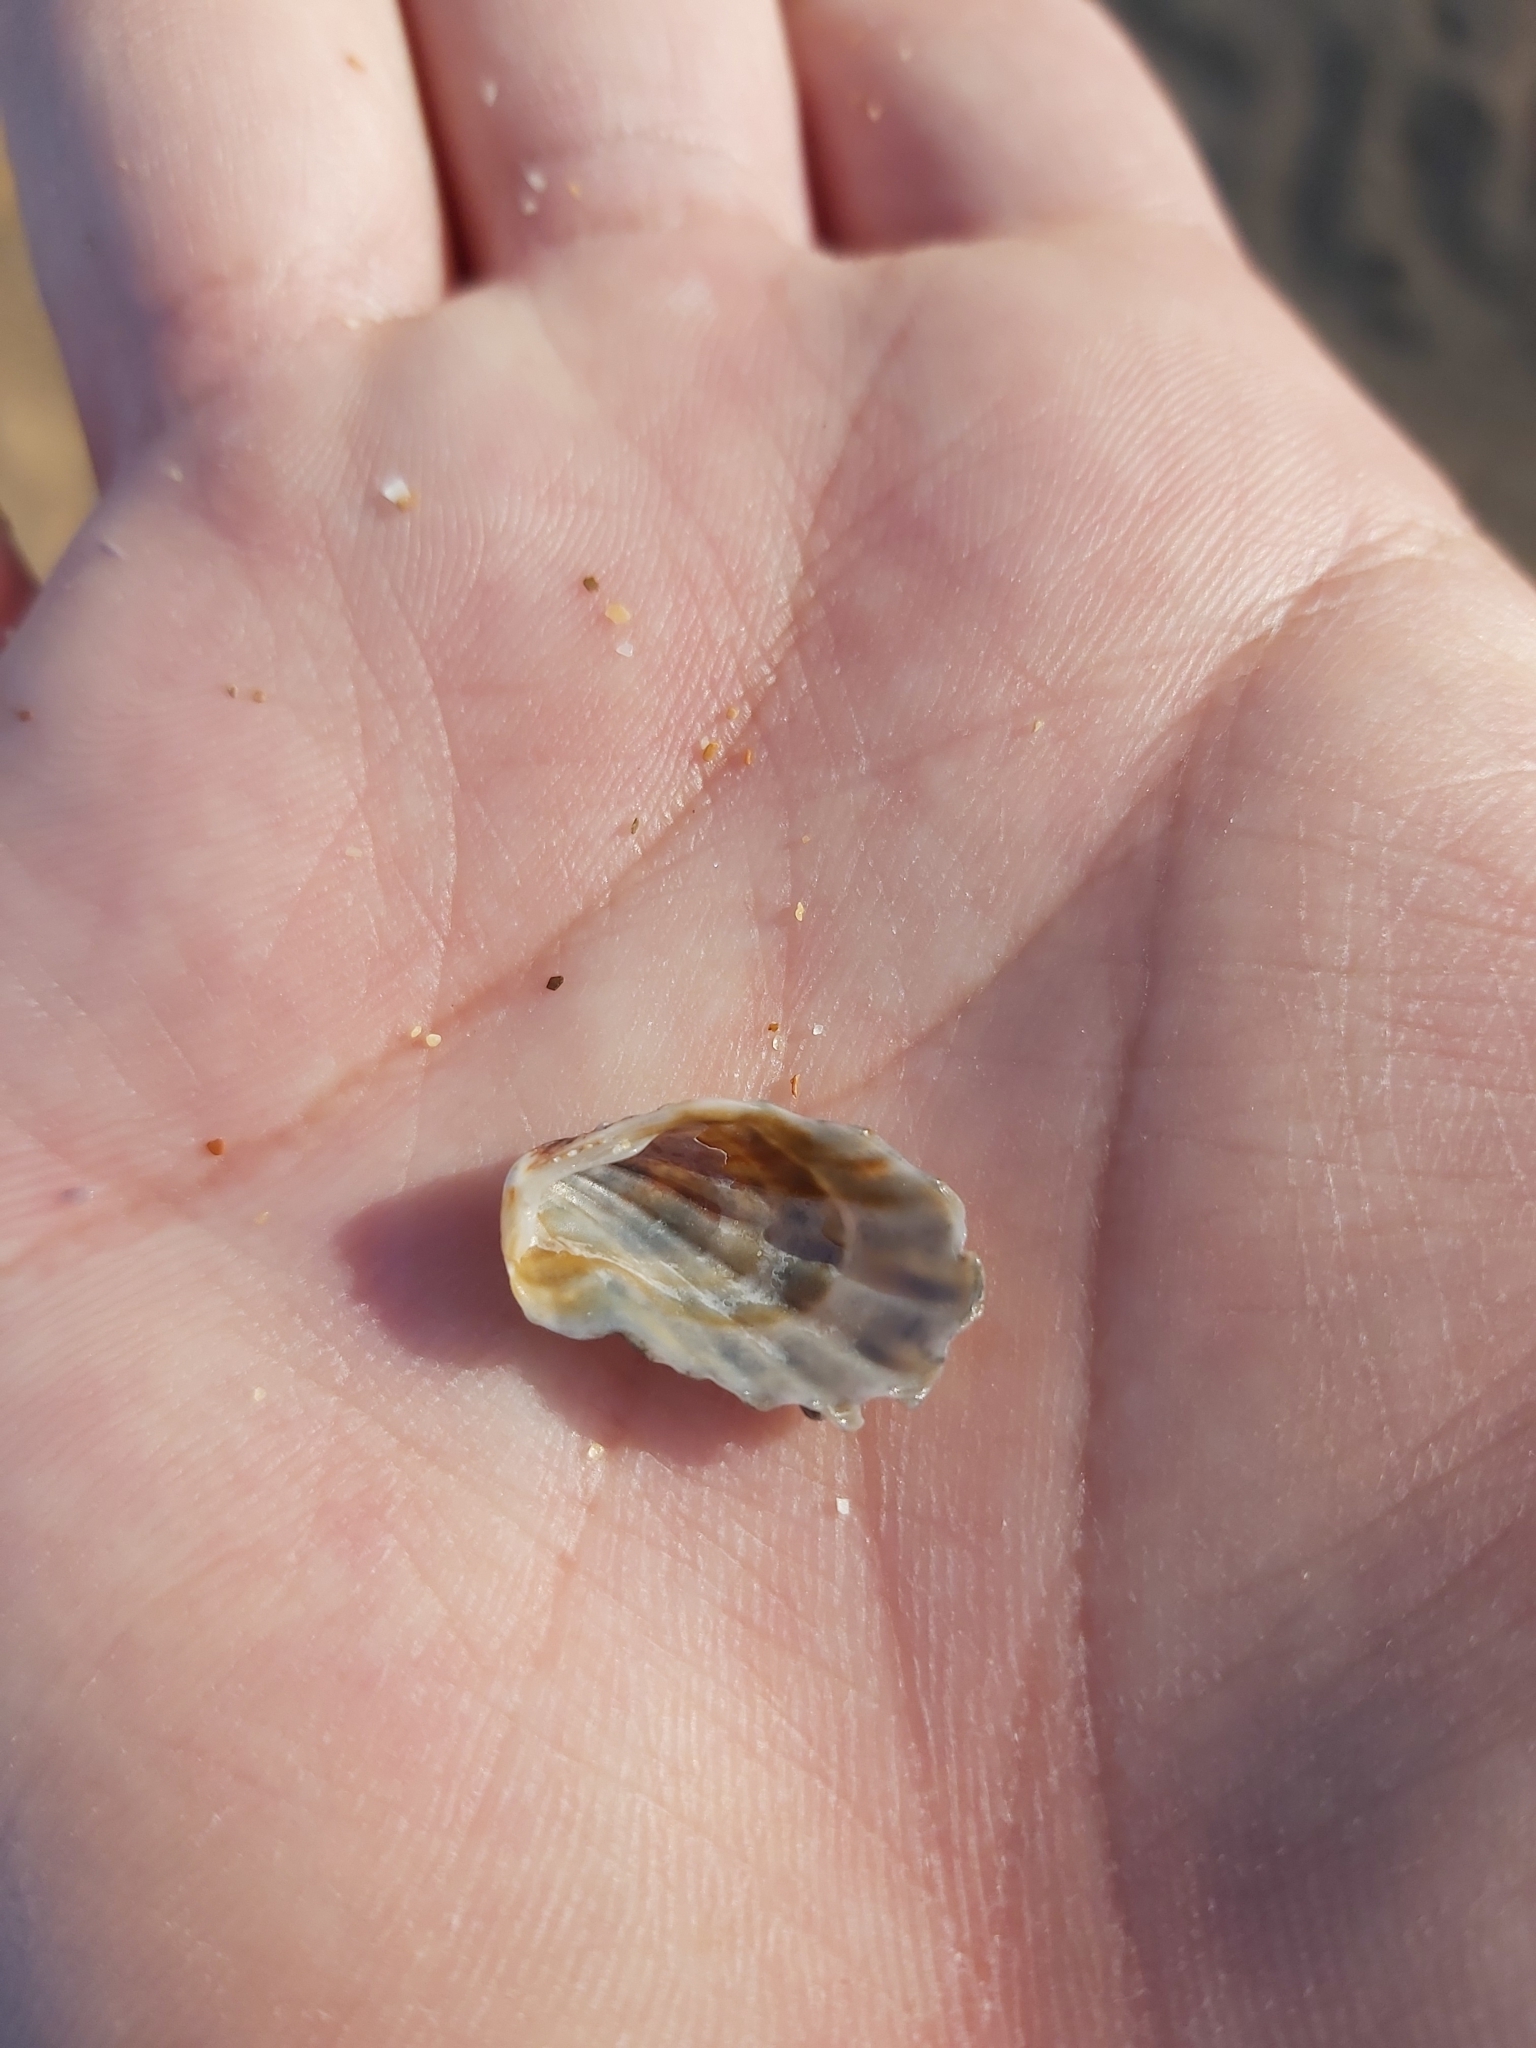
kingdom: Animalia
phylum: Mollusca
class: Bivalvia
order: Carditida
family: Carditidae
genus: Cardita
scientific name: Cardita aviculina
